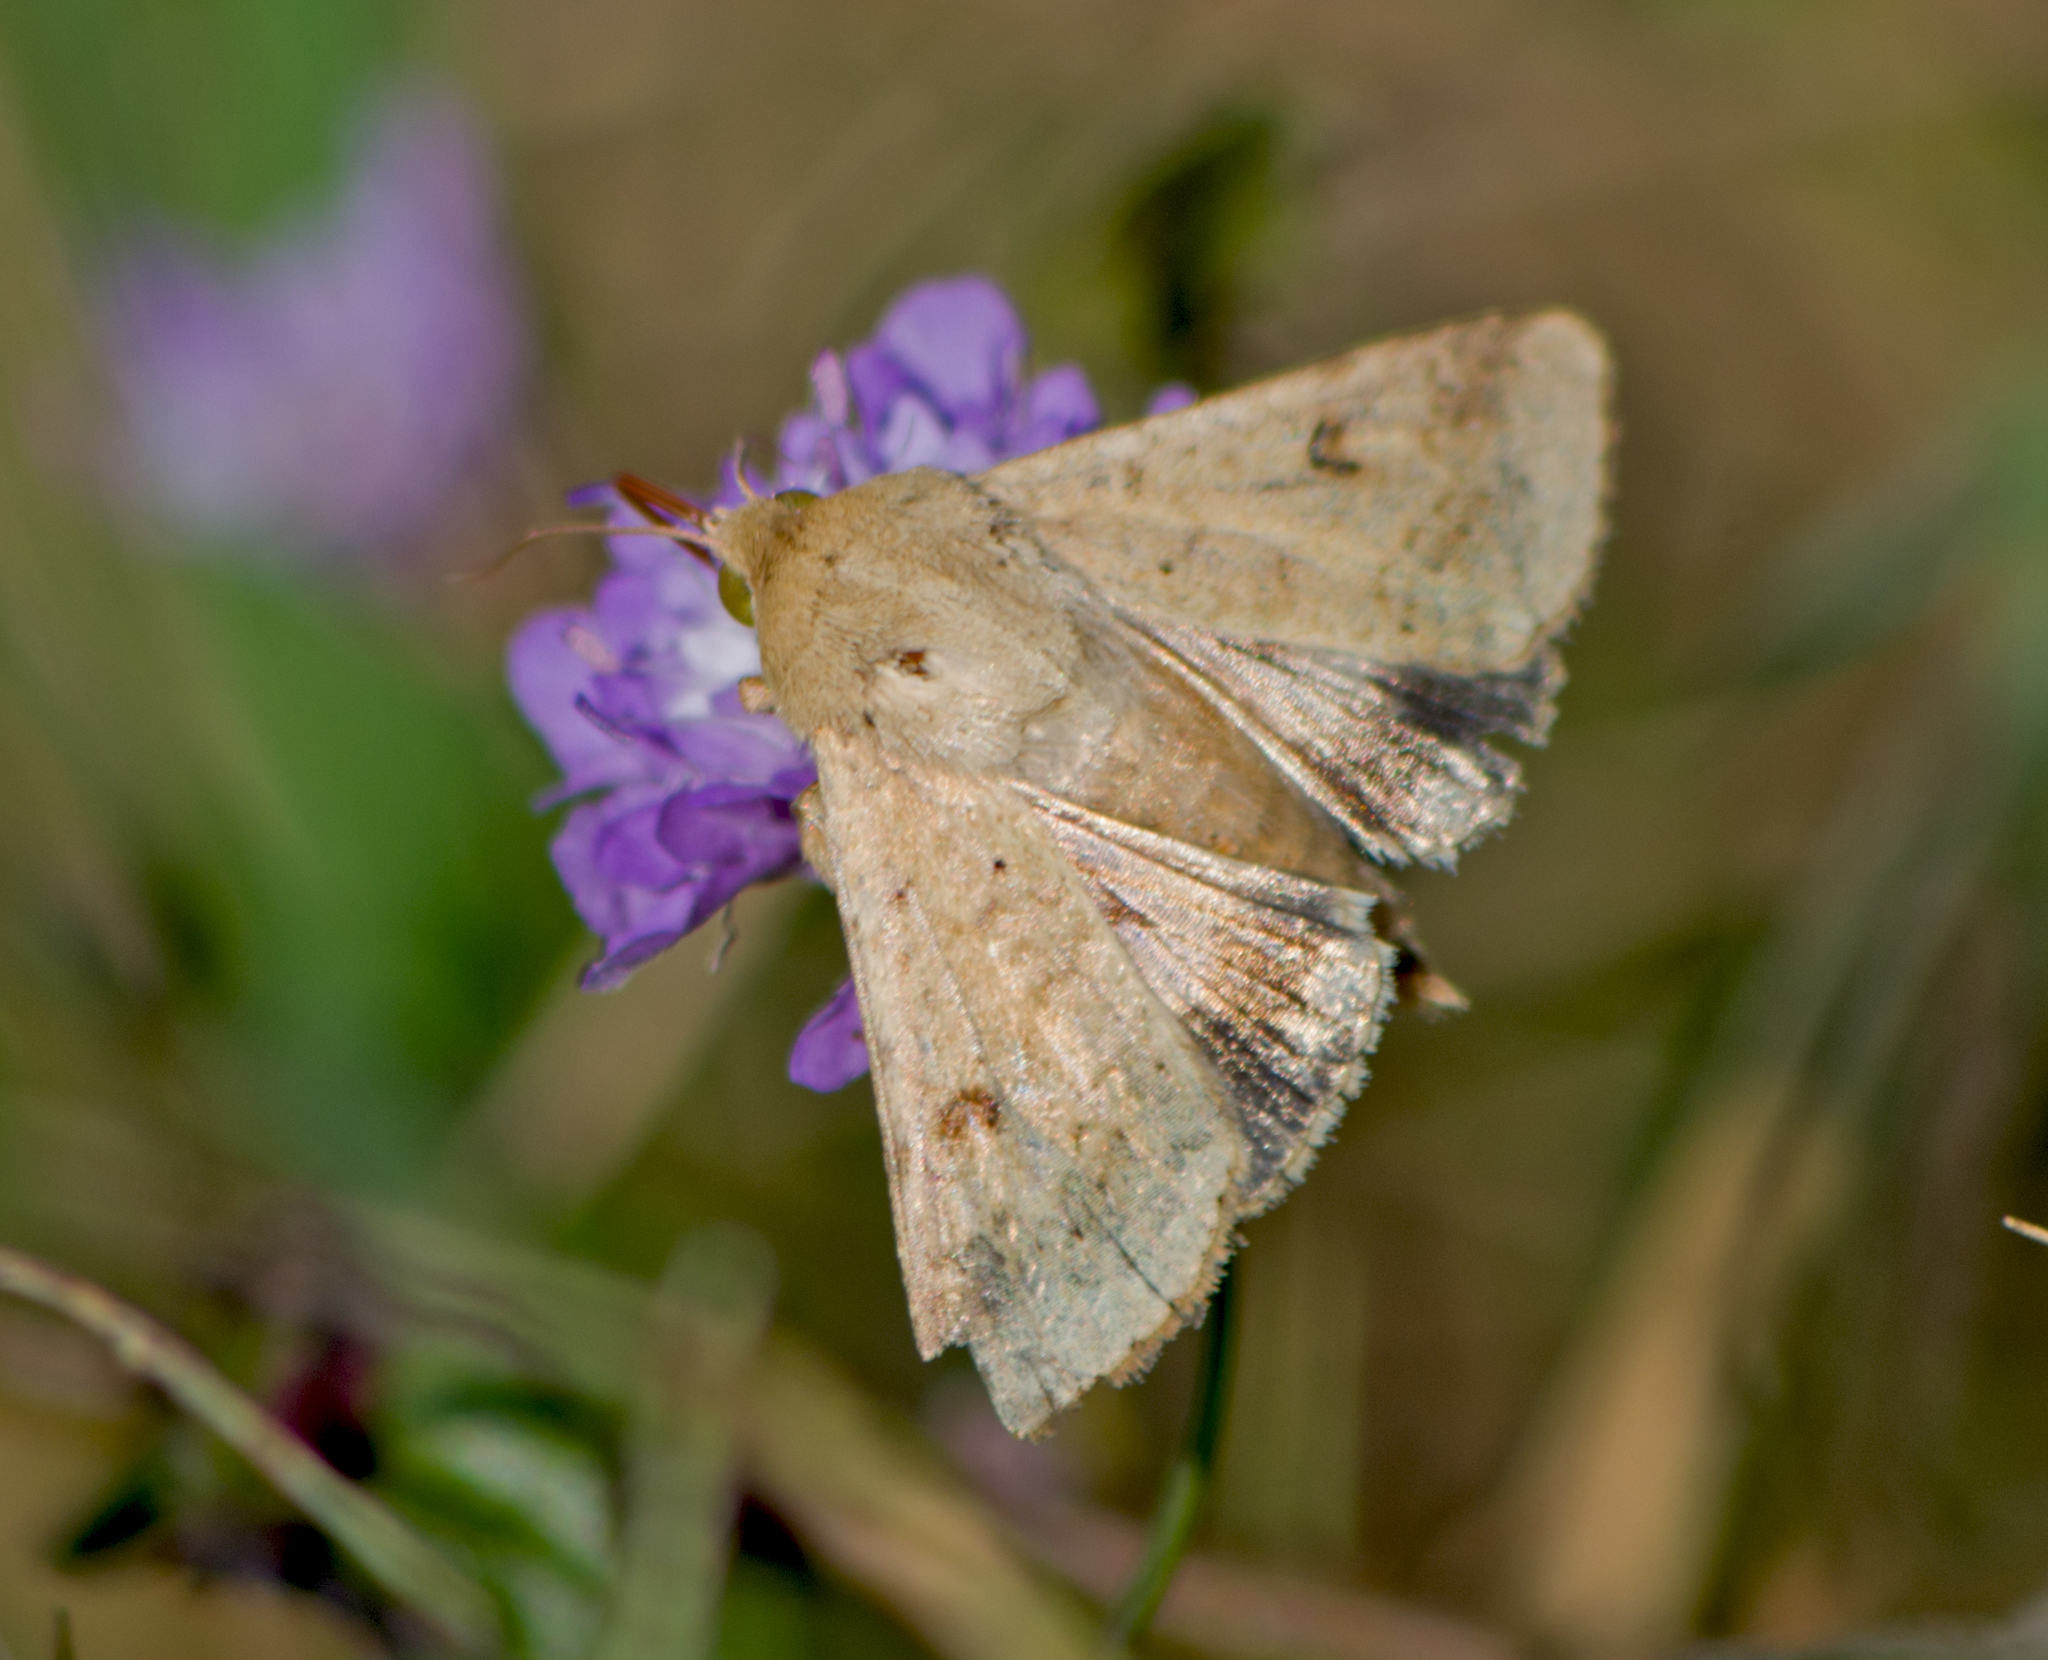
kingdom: Animalia
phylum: Arthropoda
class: Insecta
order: Lepidoptera
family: Noctuidae
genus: Helicoverpa
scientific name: Helicoverpa armigera
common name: Cotton bollworm
